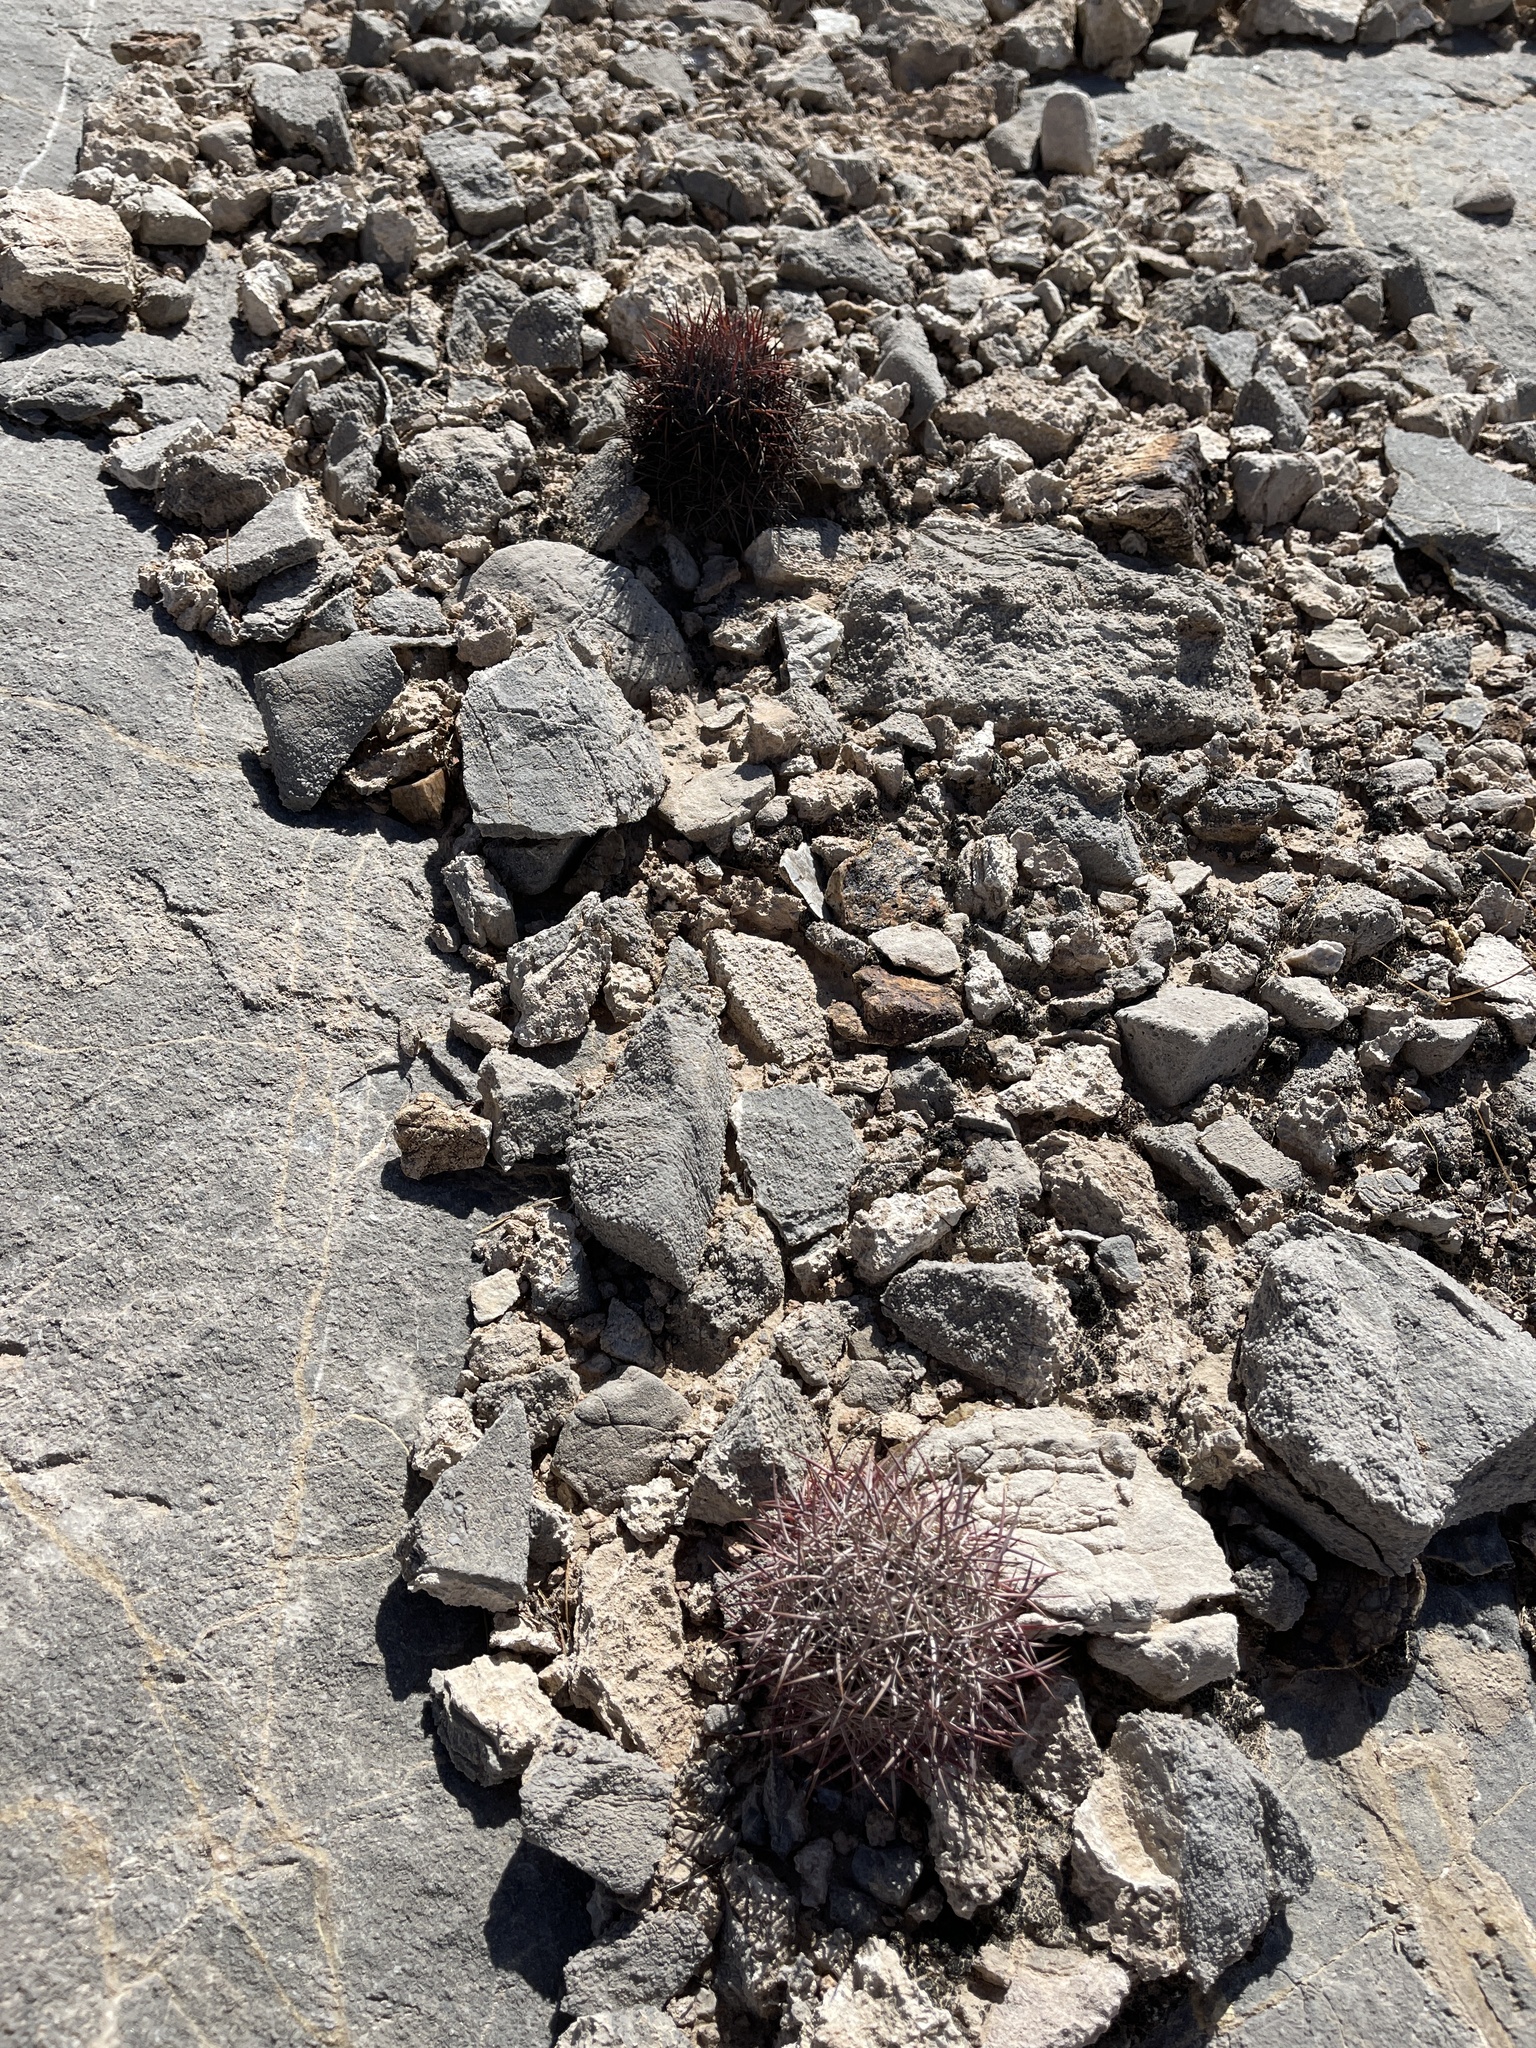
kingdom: Plantae
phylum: Tracheophyta
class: Magnoliopsida
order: Caryophyllales
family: Cactaceae
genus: Sclerocactus
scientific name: Sclerocactus johnsonii
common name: Eight-spine fishhook cactus
